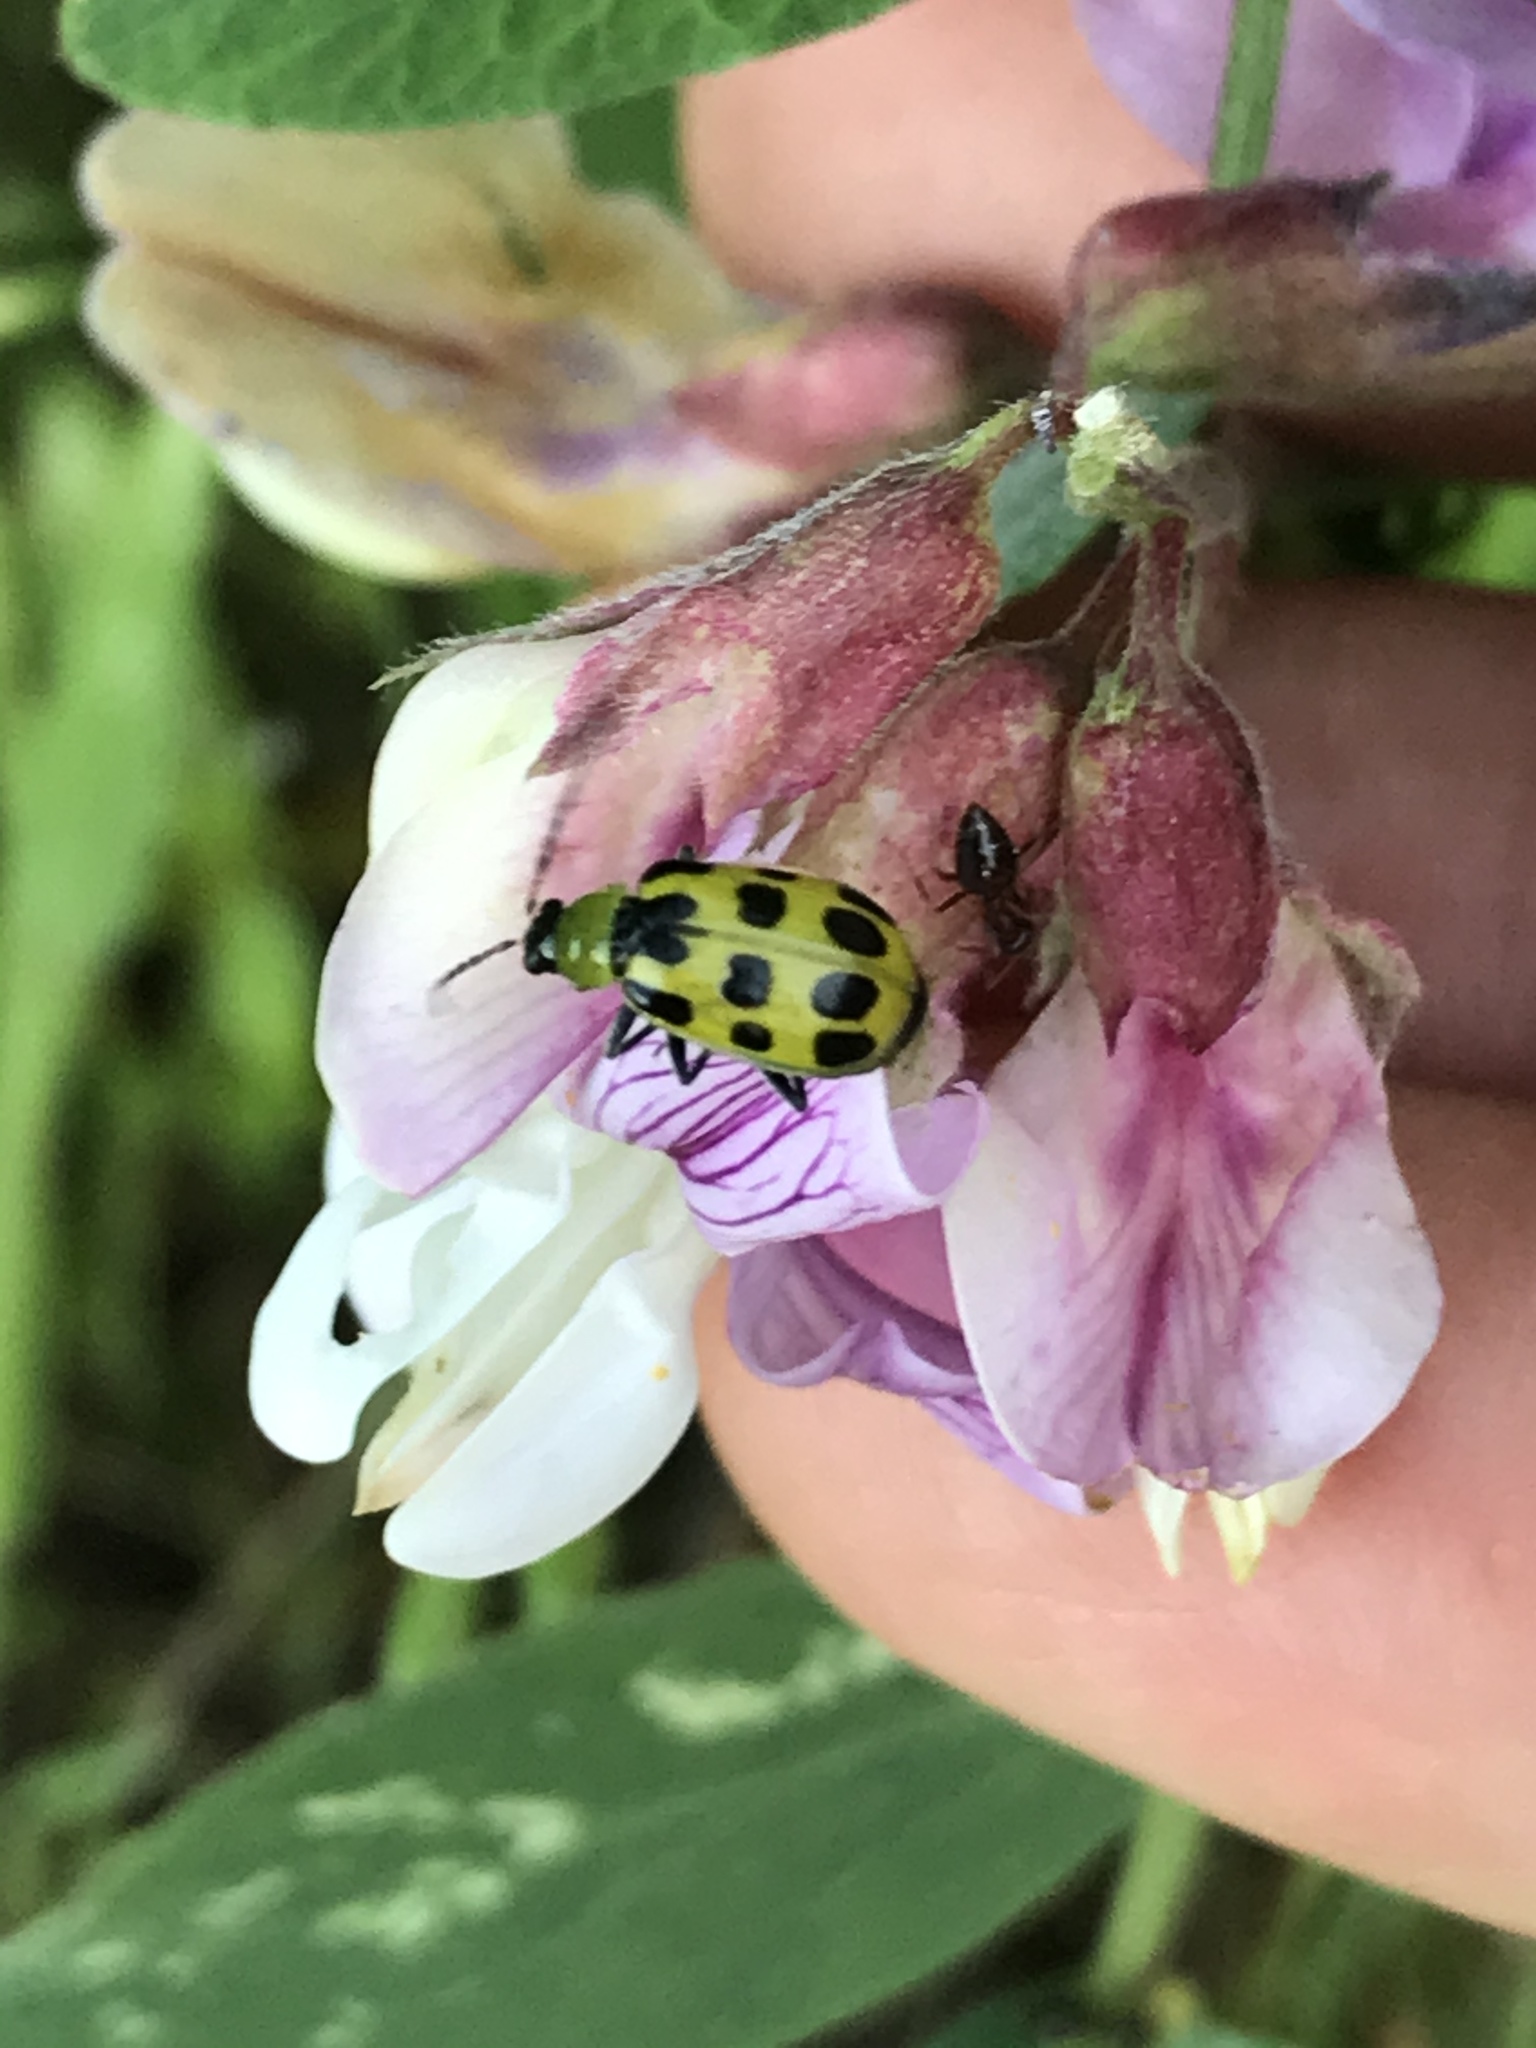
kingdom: Animalia
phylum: Arthropoda
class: Insecta
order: Coleoptera
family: Chrysomelidae
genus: Diabrotica
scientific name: Diabrotica undecimpunctata
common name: Spotted cucumber beetle
